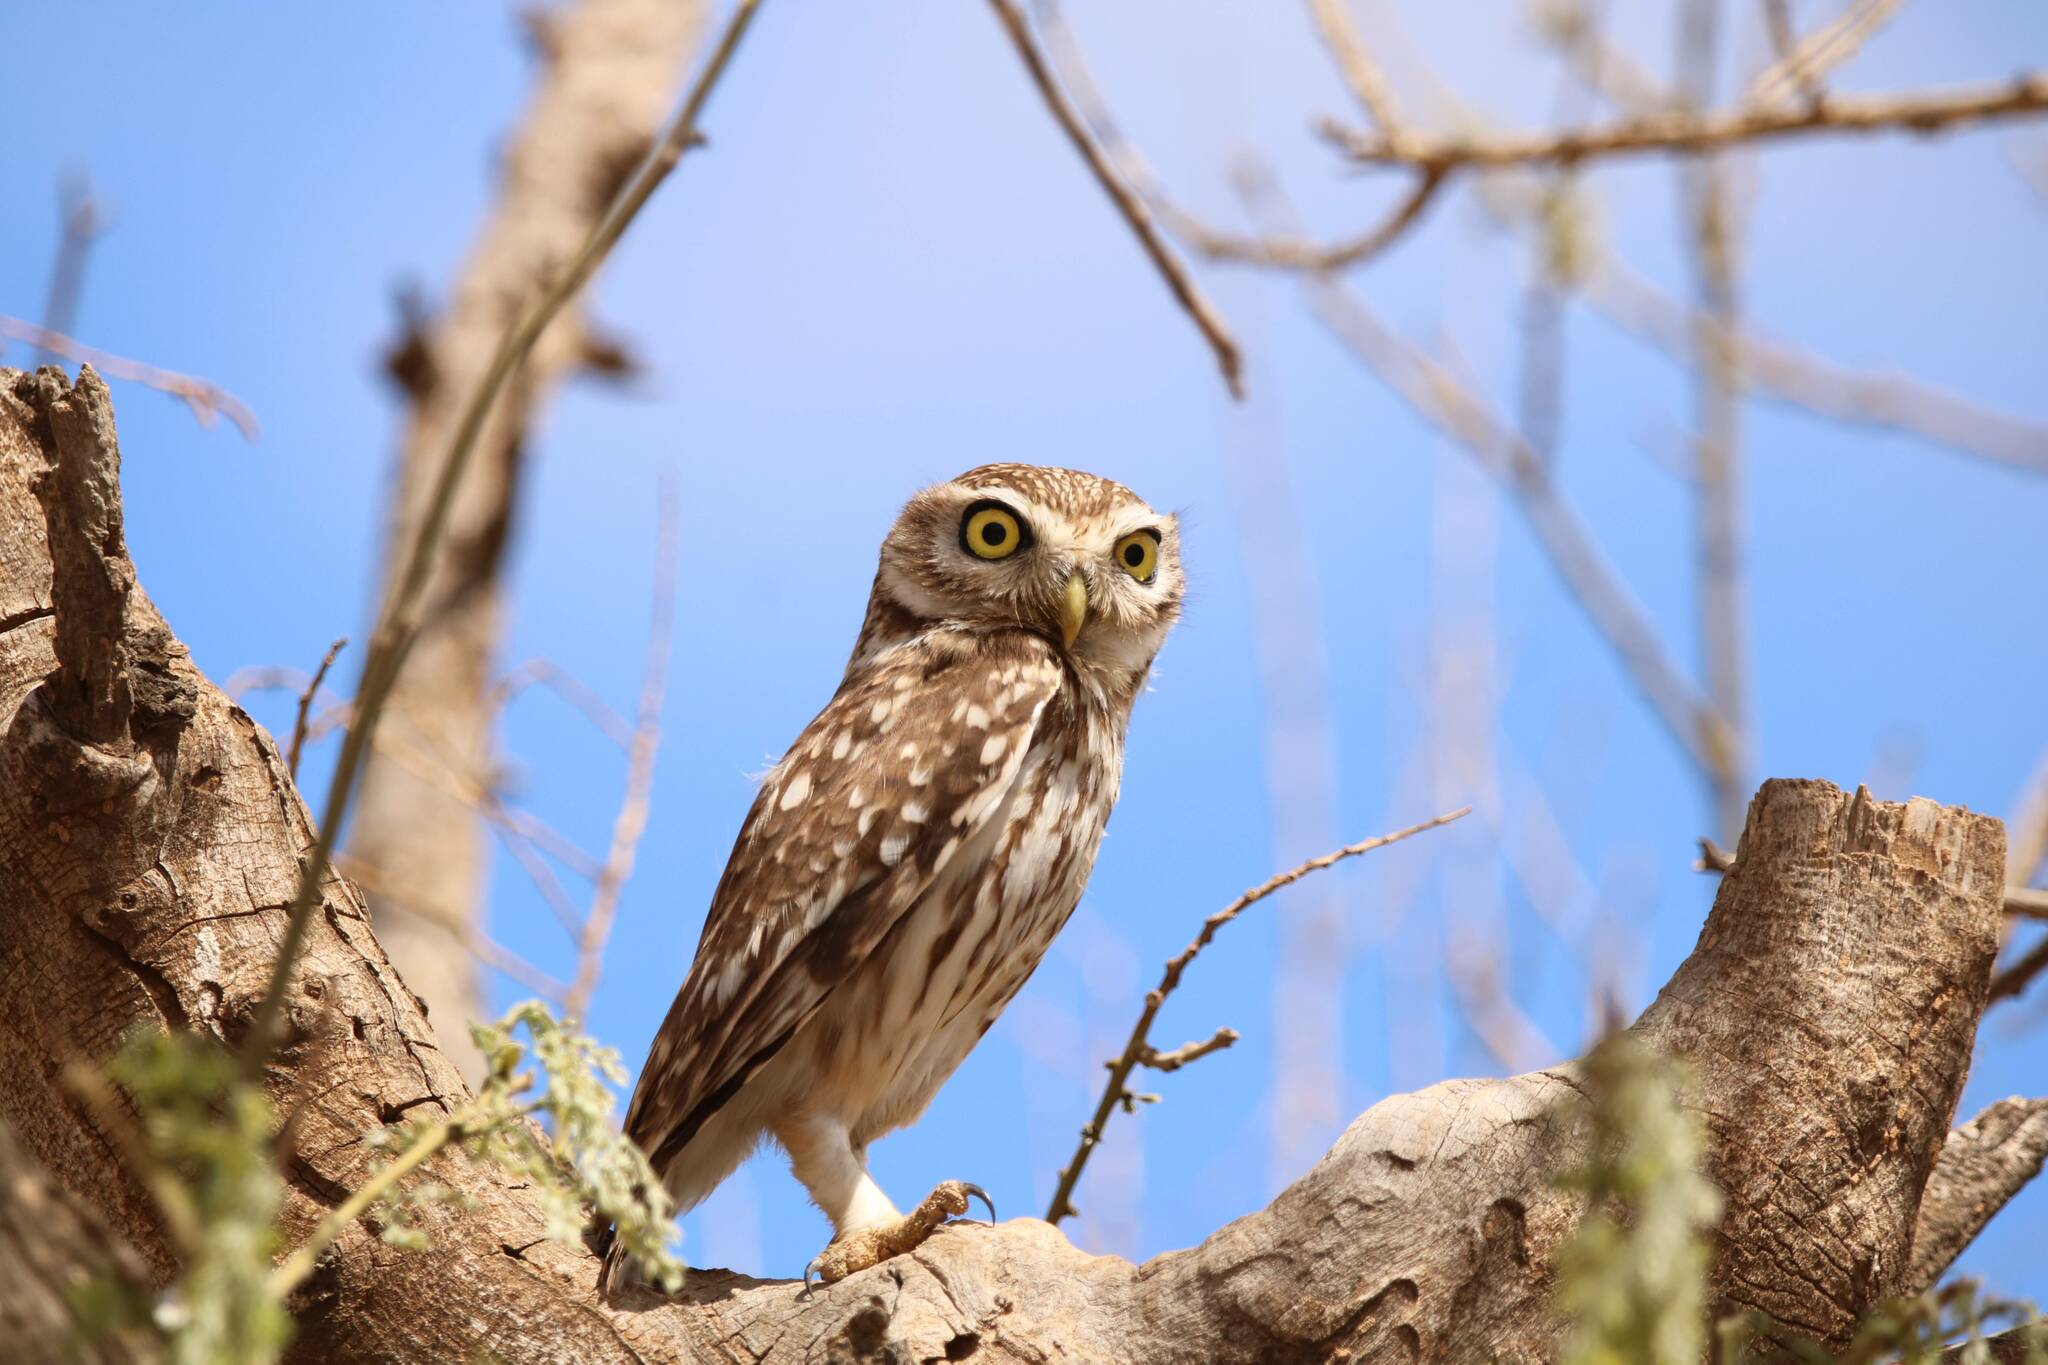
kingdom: Animalia
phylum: Chordata
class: Aves
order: Strigiformes
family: Strigidae
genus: Athene
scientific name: Athene noctua
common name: Little owl
